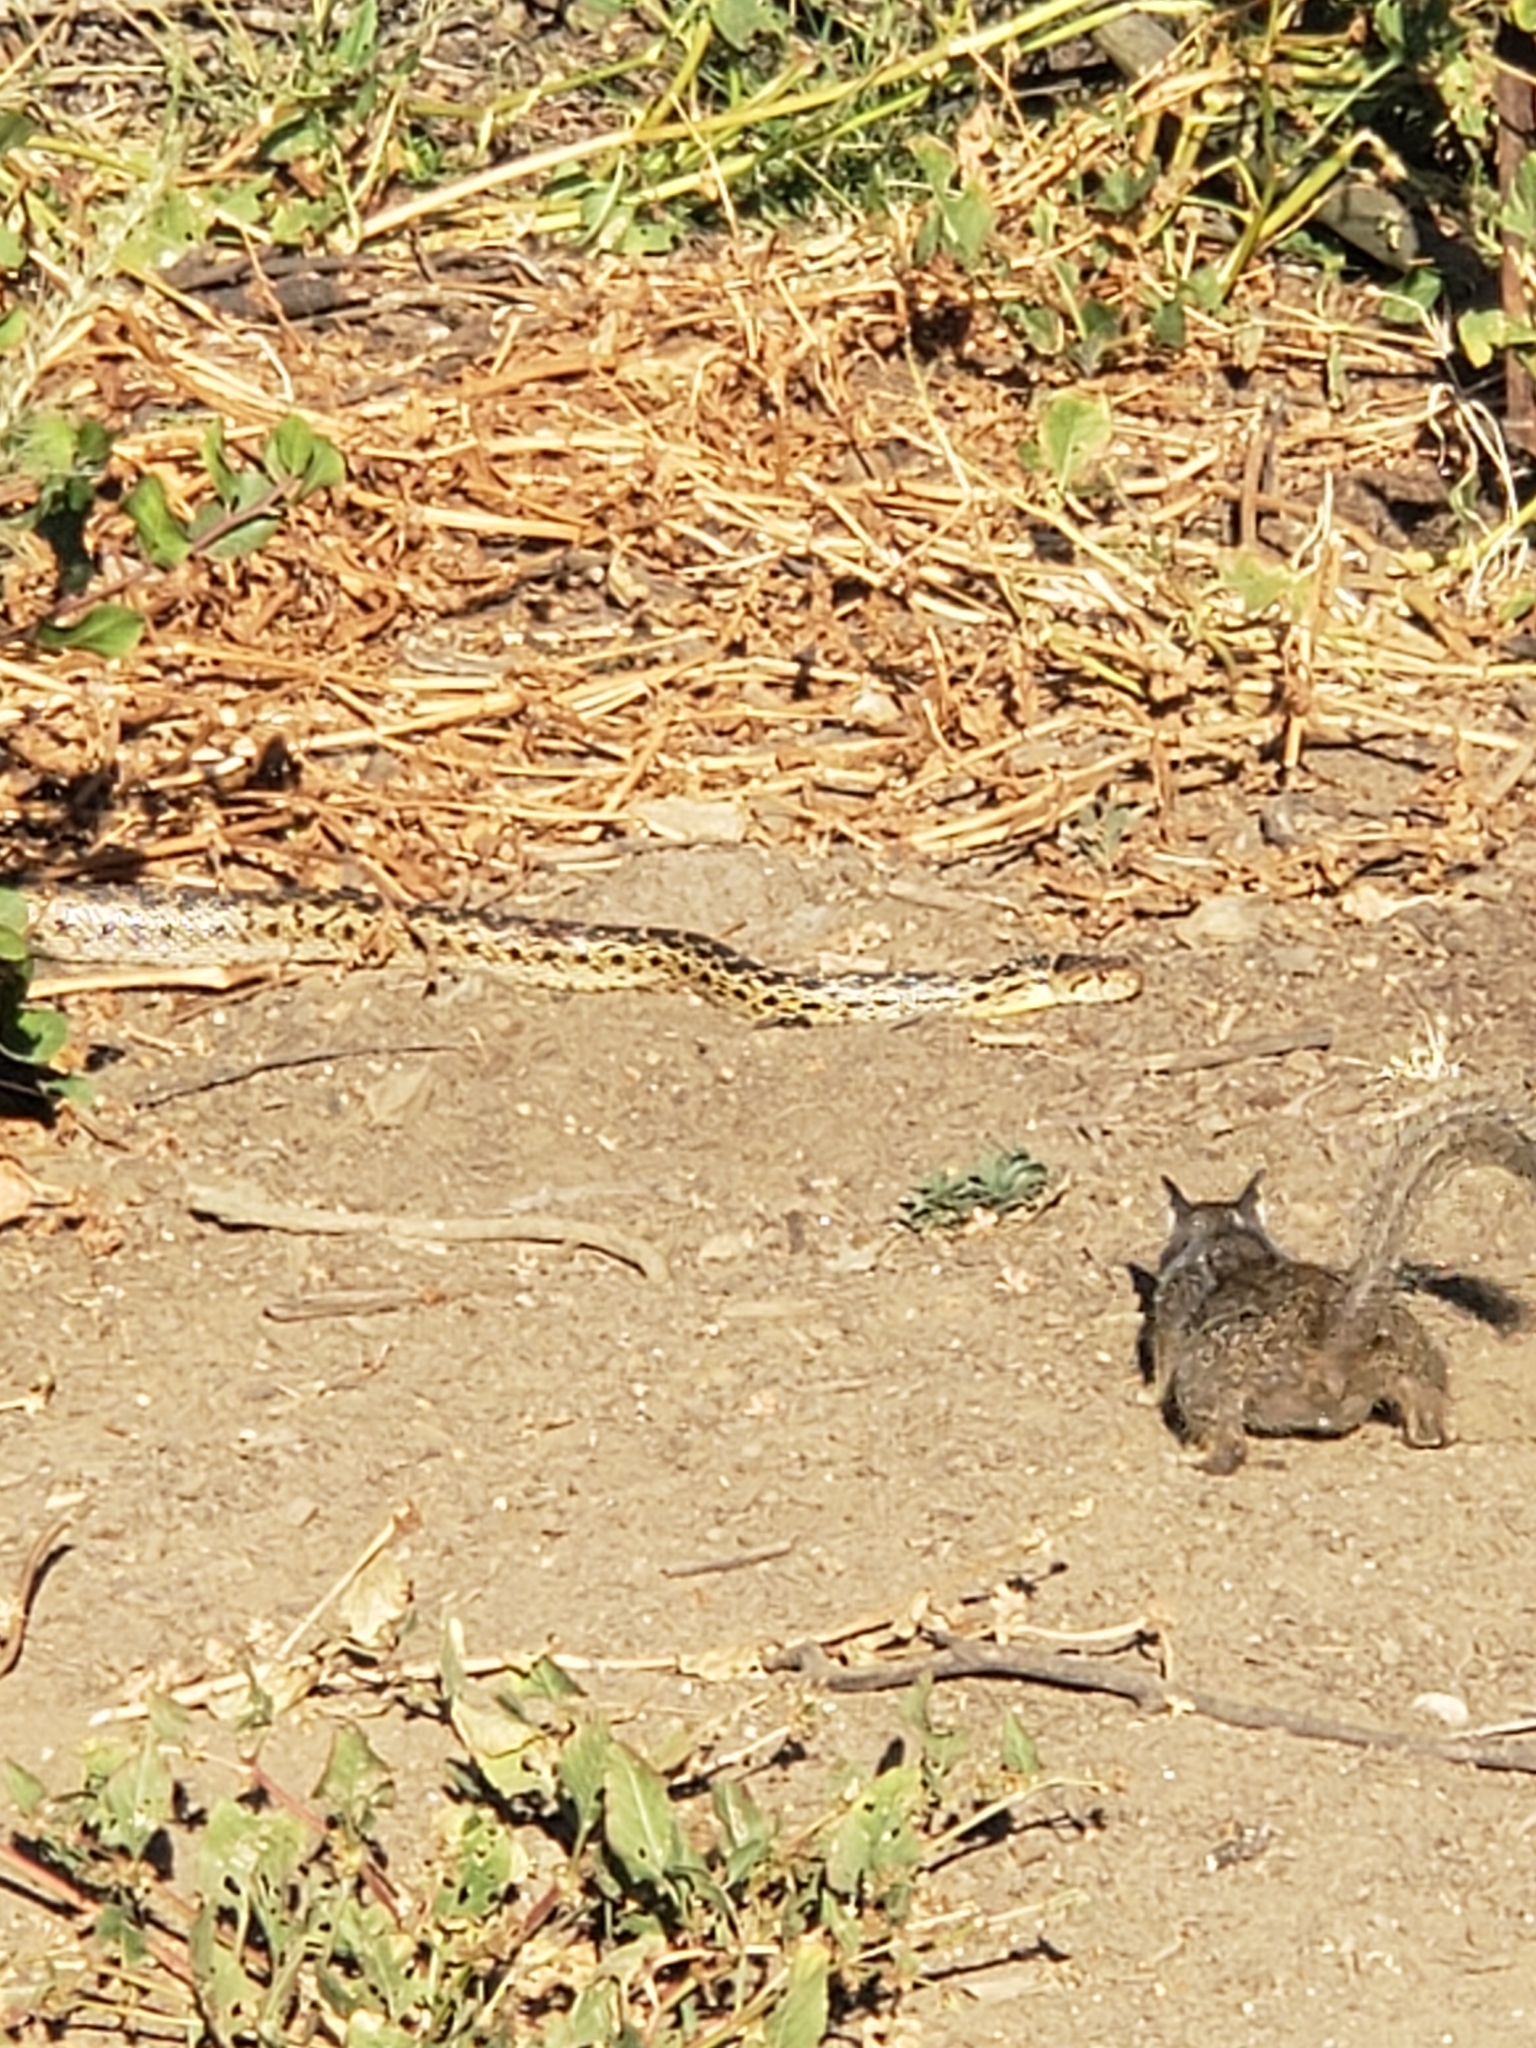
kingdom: Animalia
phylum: Chordata
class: Squamata
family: Colubridae
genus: Pituophis
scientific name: Pituophis catenifer
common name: Gopher snake
